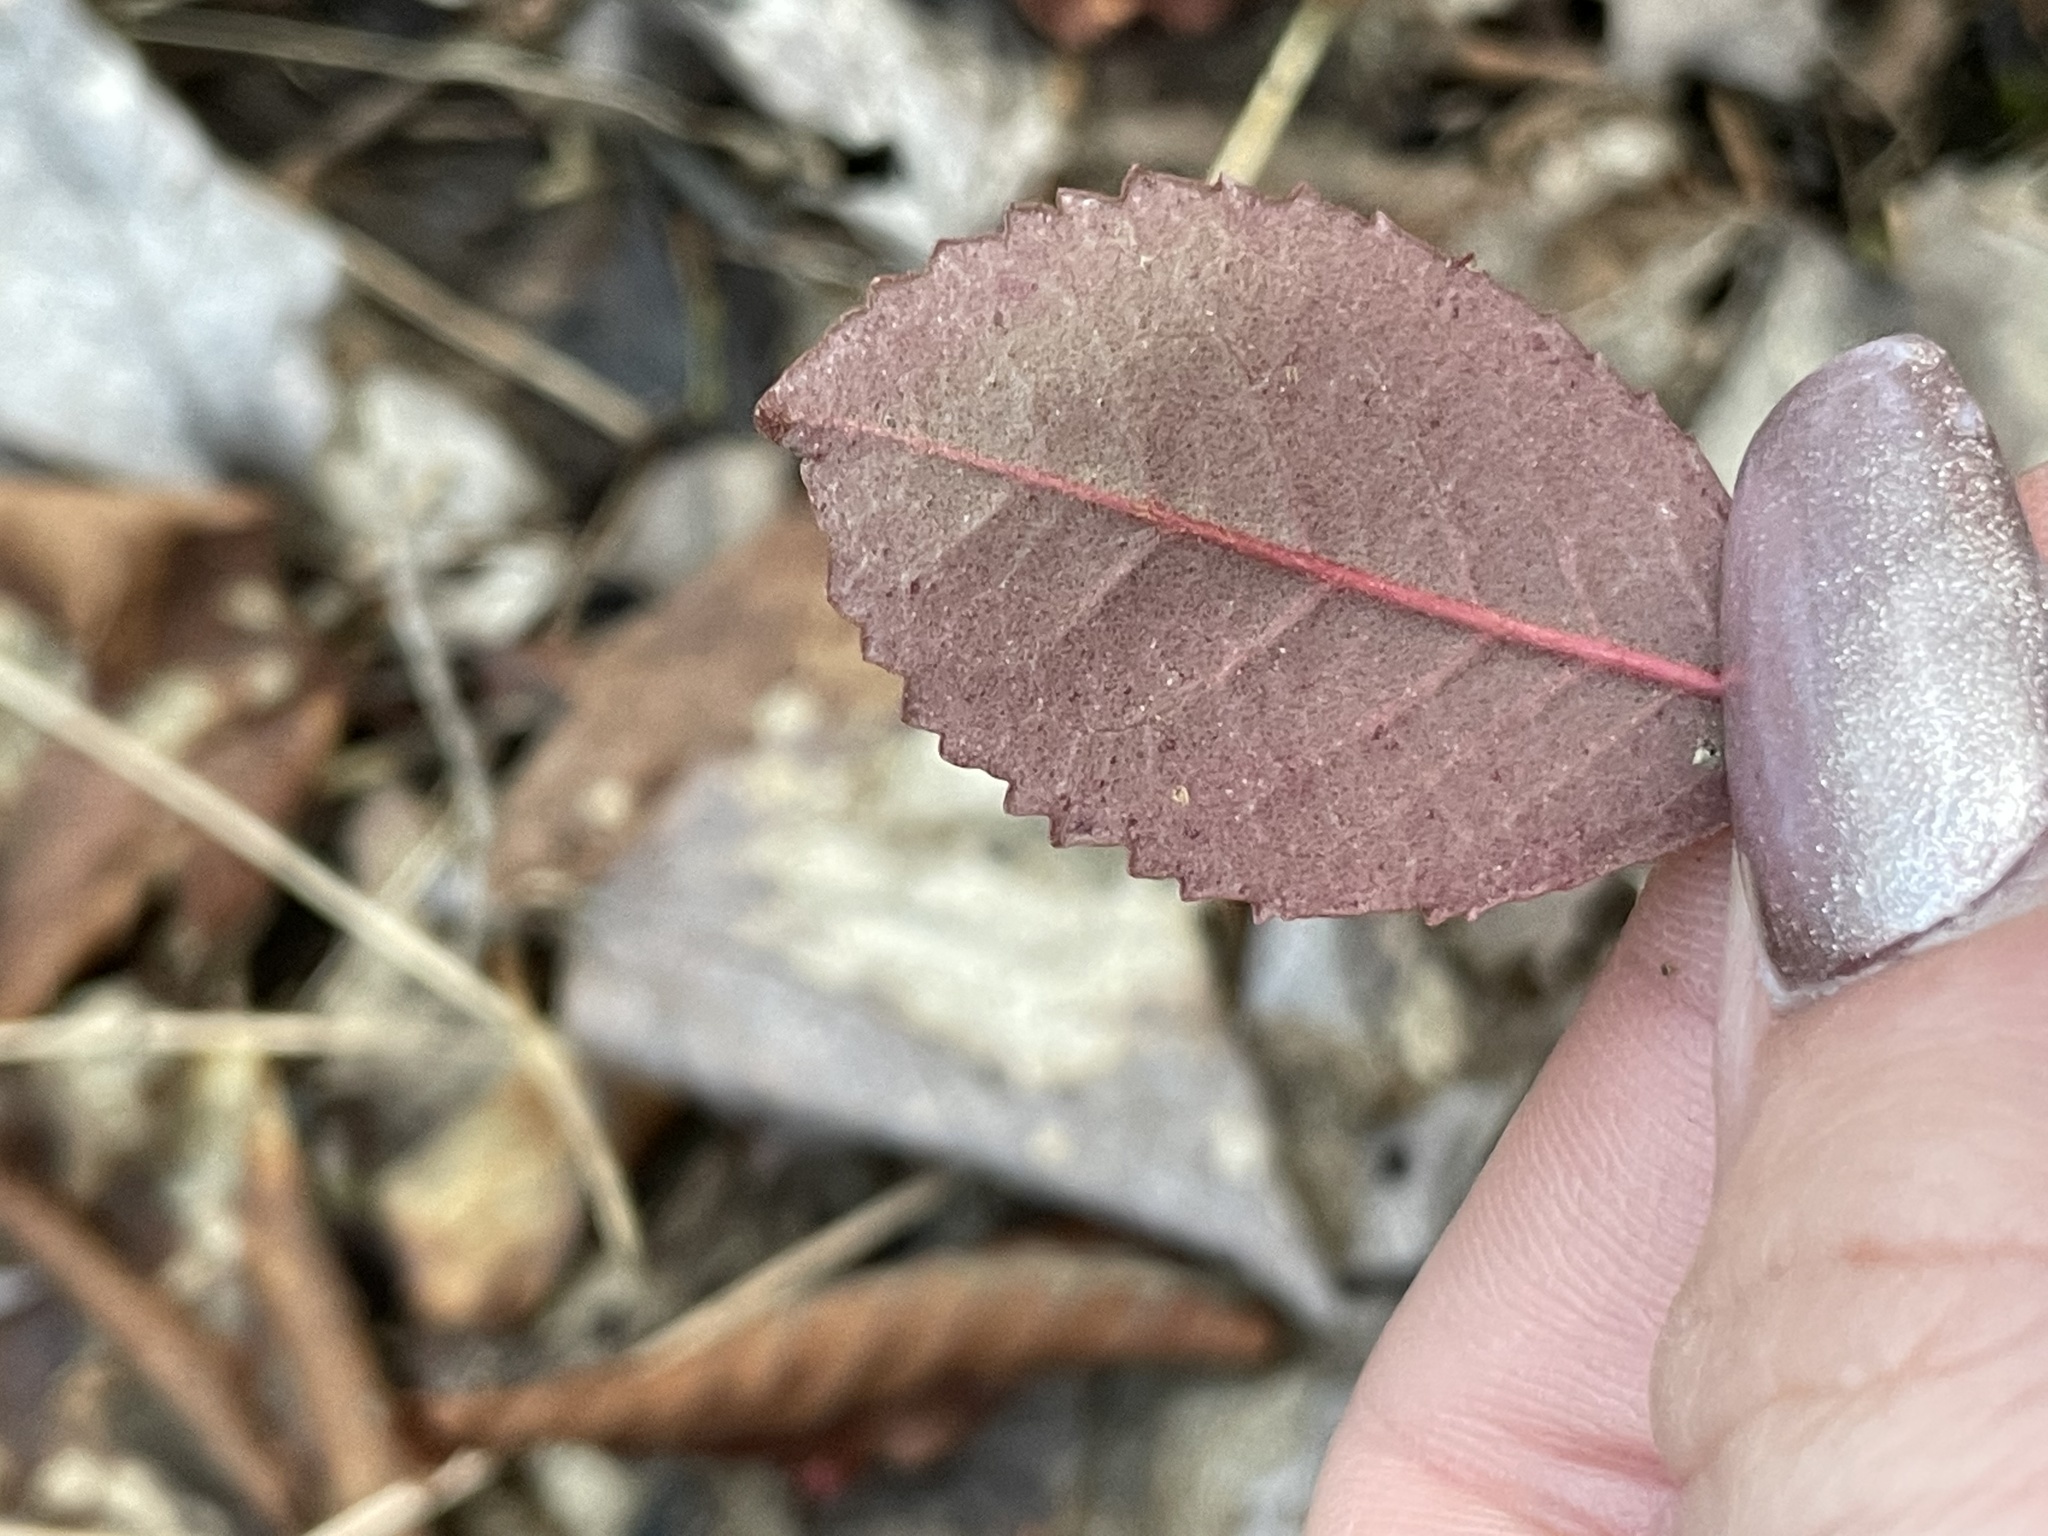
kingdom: Plantae
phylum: Tracheophyta
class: Magnoliopsida
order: Dipsacales
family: Viburnaceae
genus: Viburnum
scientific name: Viburnum cassinoides
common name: Swamp haw
